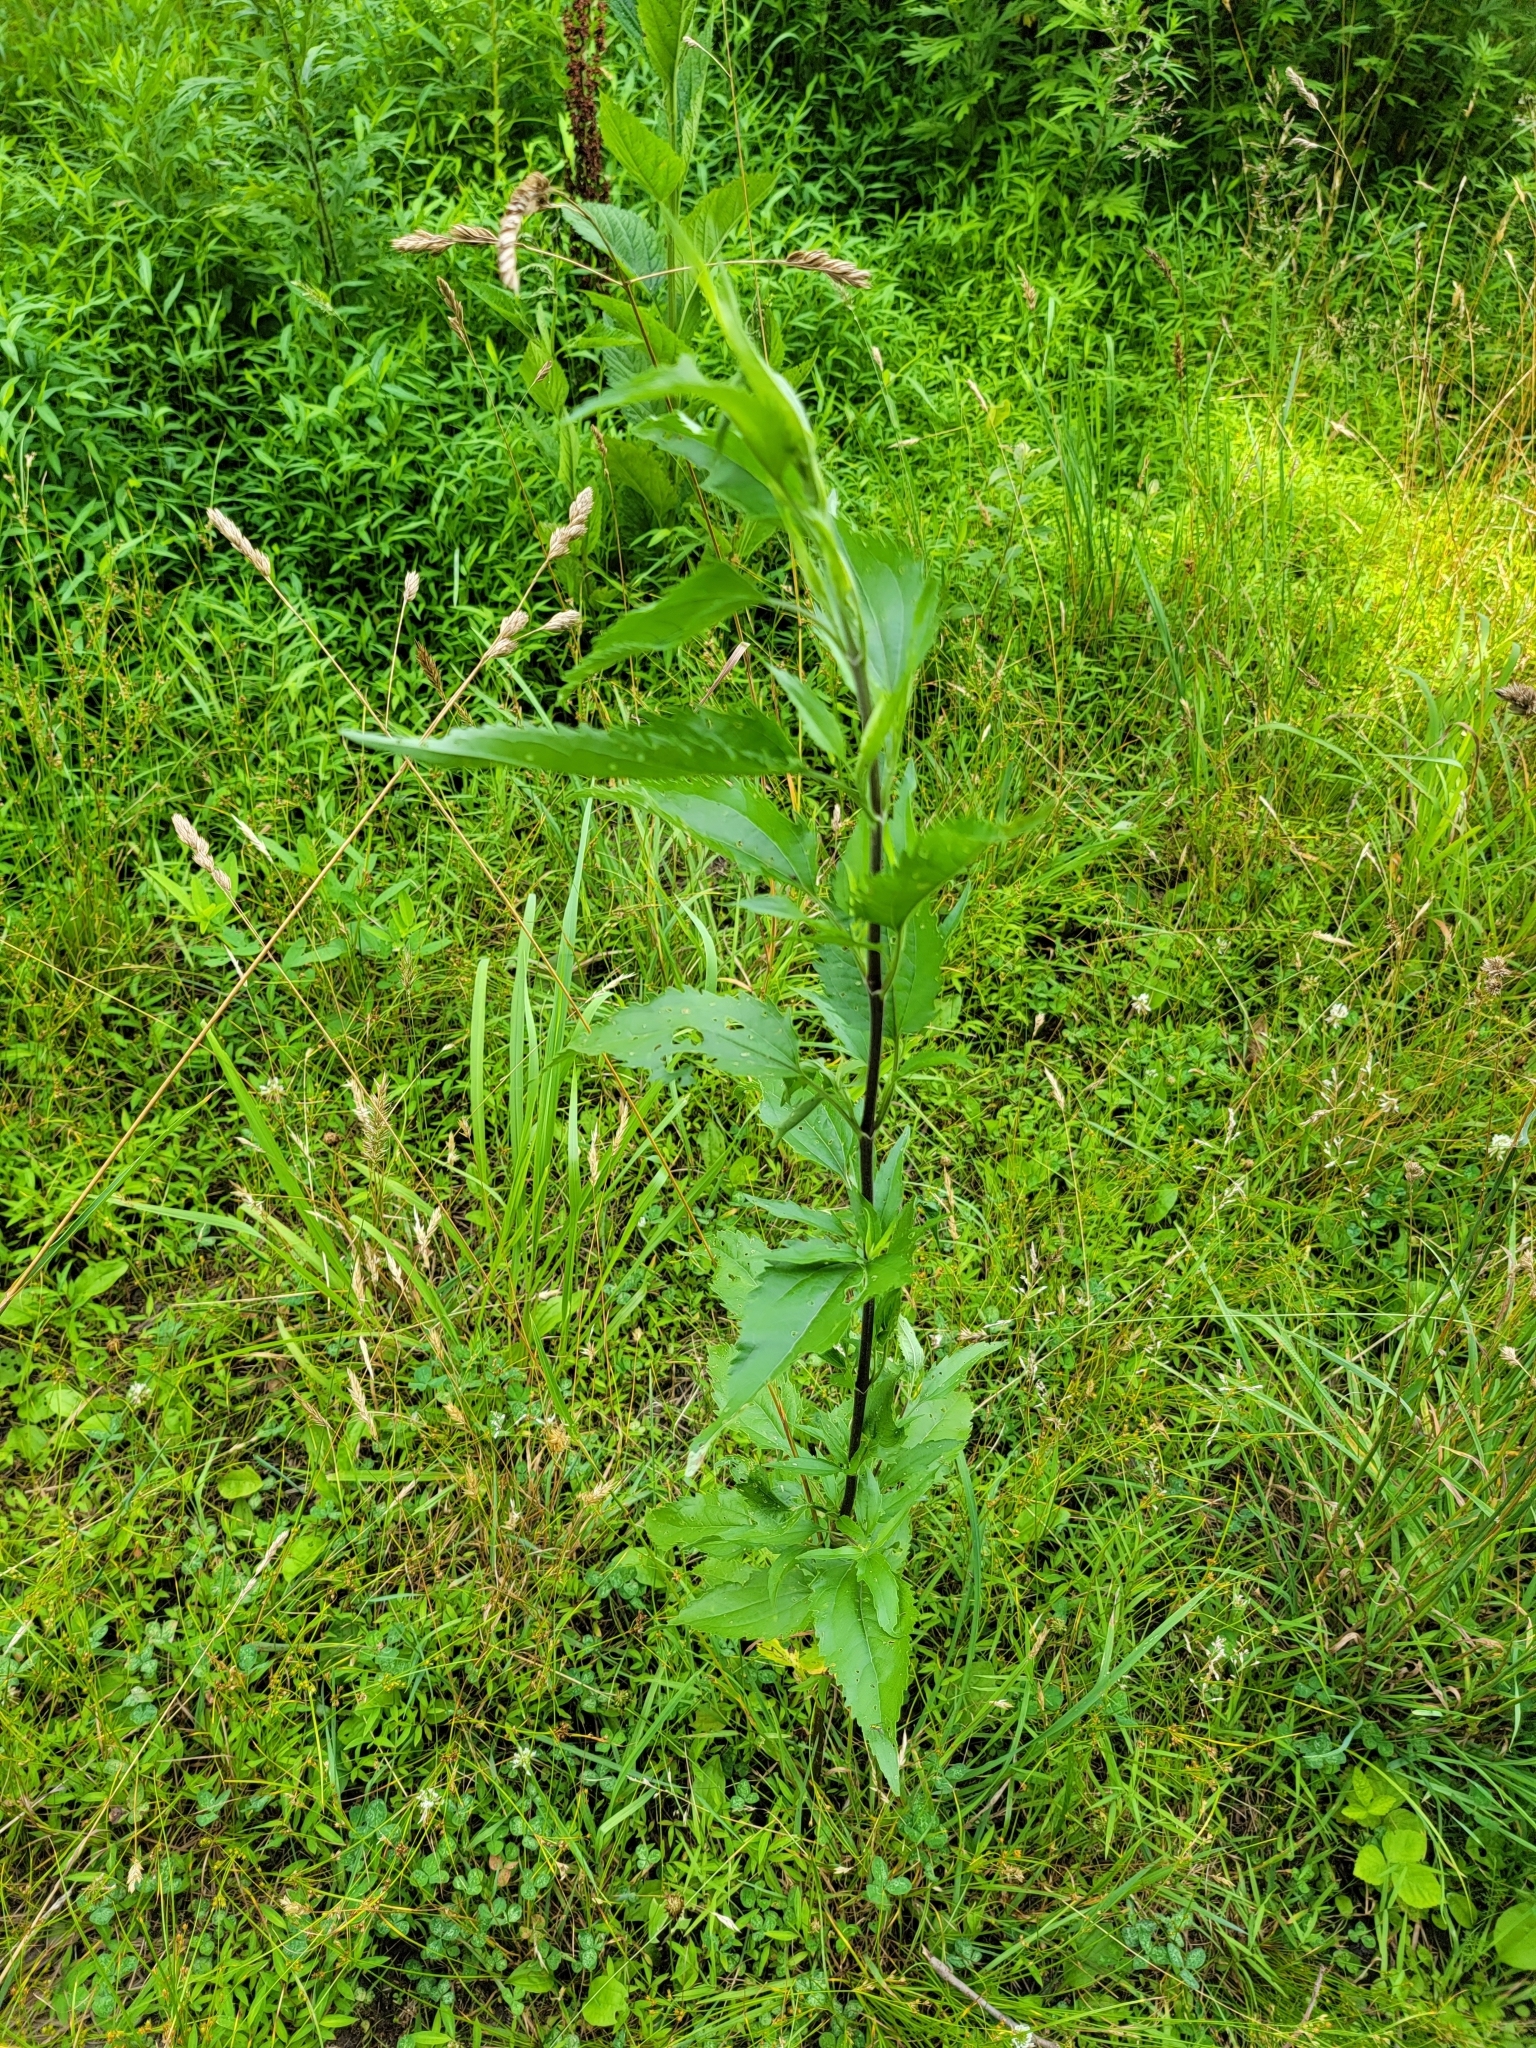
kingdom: Plantae
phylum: Tracheophyta
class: Magnoliopsida
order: Asterales
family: Asteraceae
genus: Eupatorium
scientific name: Eupatorium serotinum
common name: Late boneset
